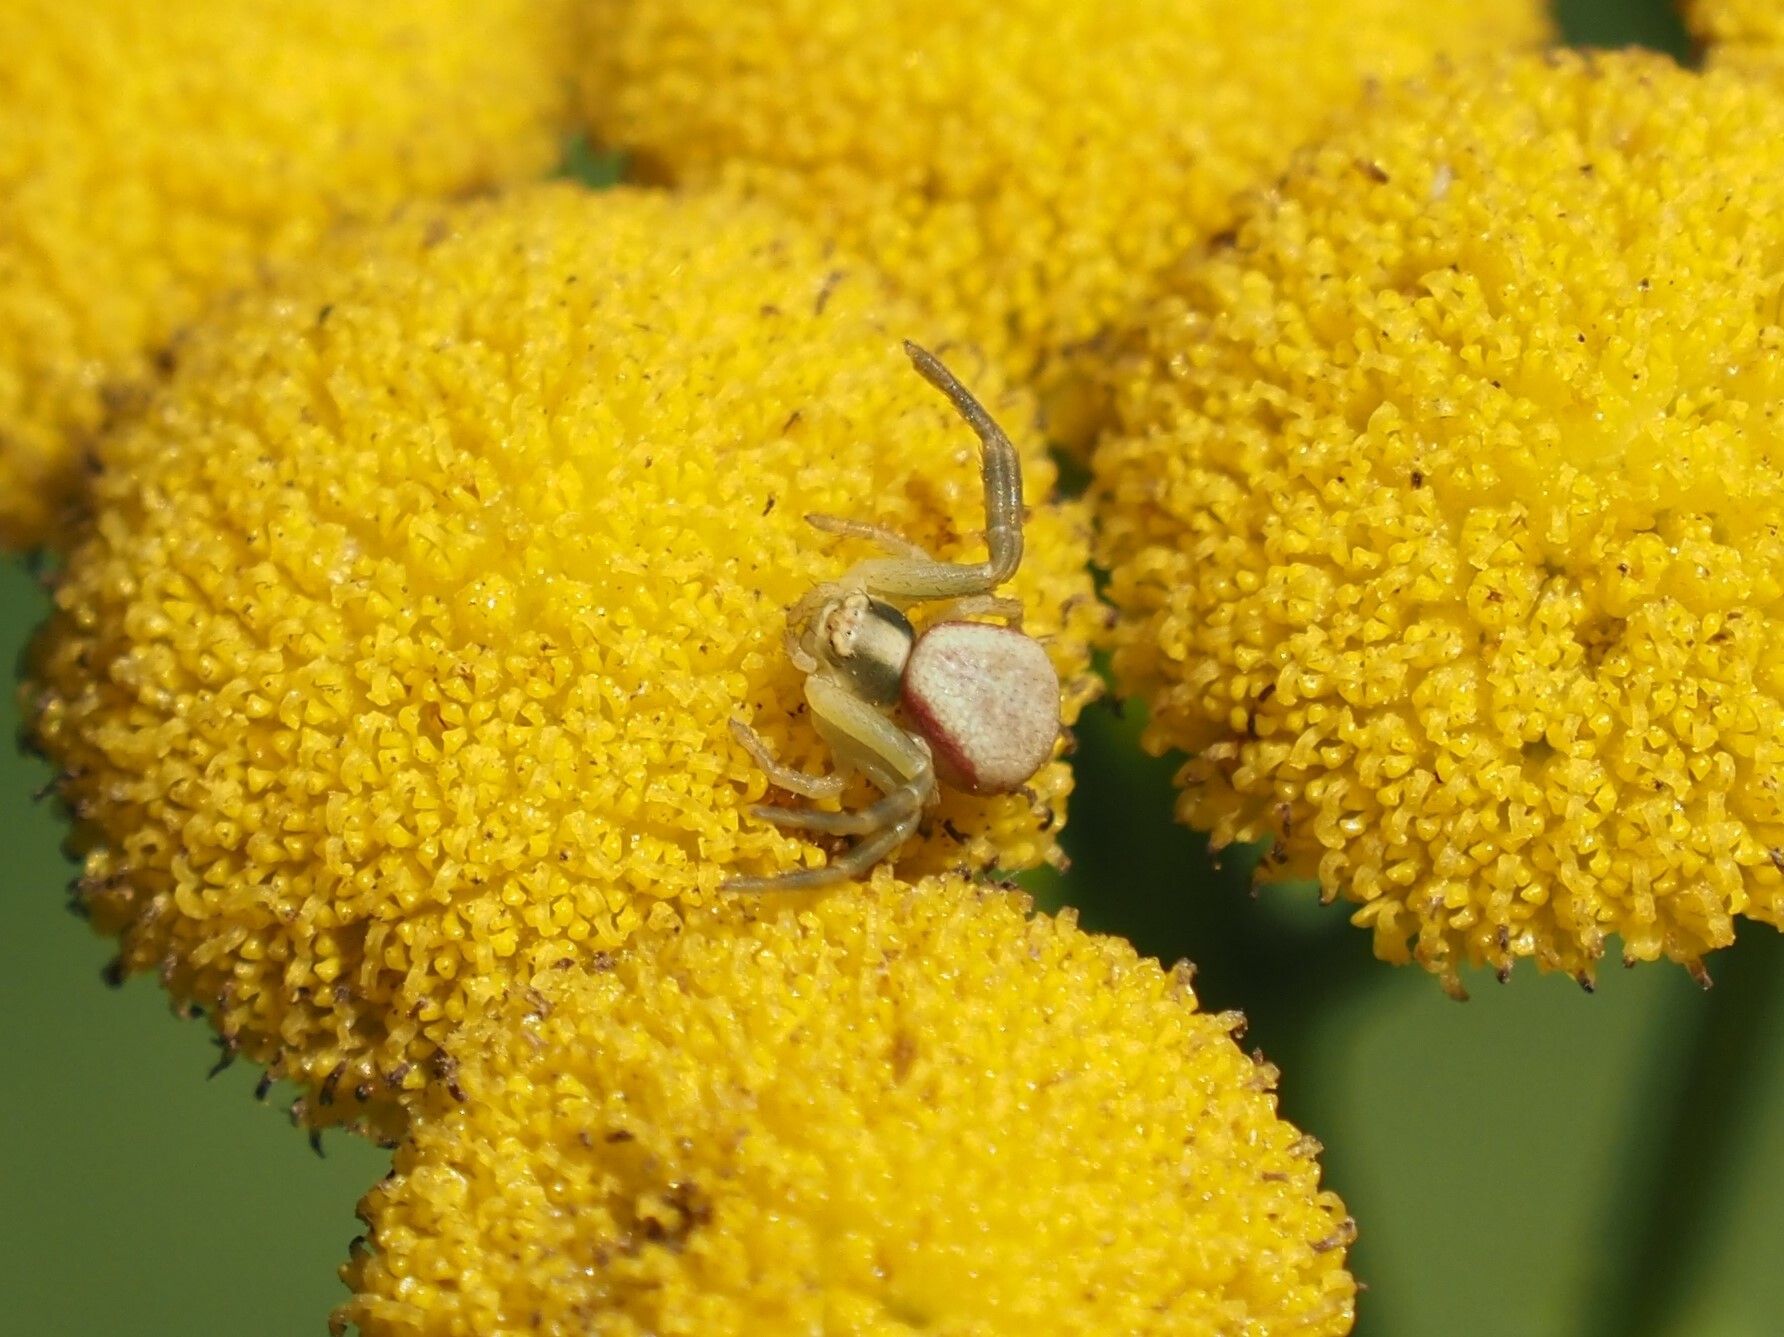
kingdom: Animalia
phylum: Arthropoda
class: Arachnida
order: Araneae
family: Thomisidae
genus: Misumena
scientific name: Misumena vatia
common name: Goldenrod crab spider
